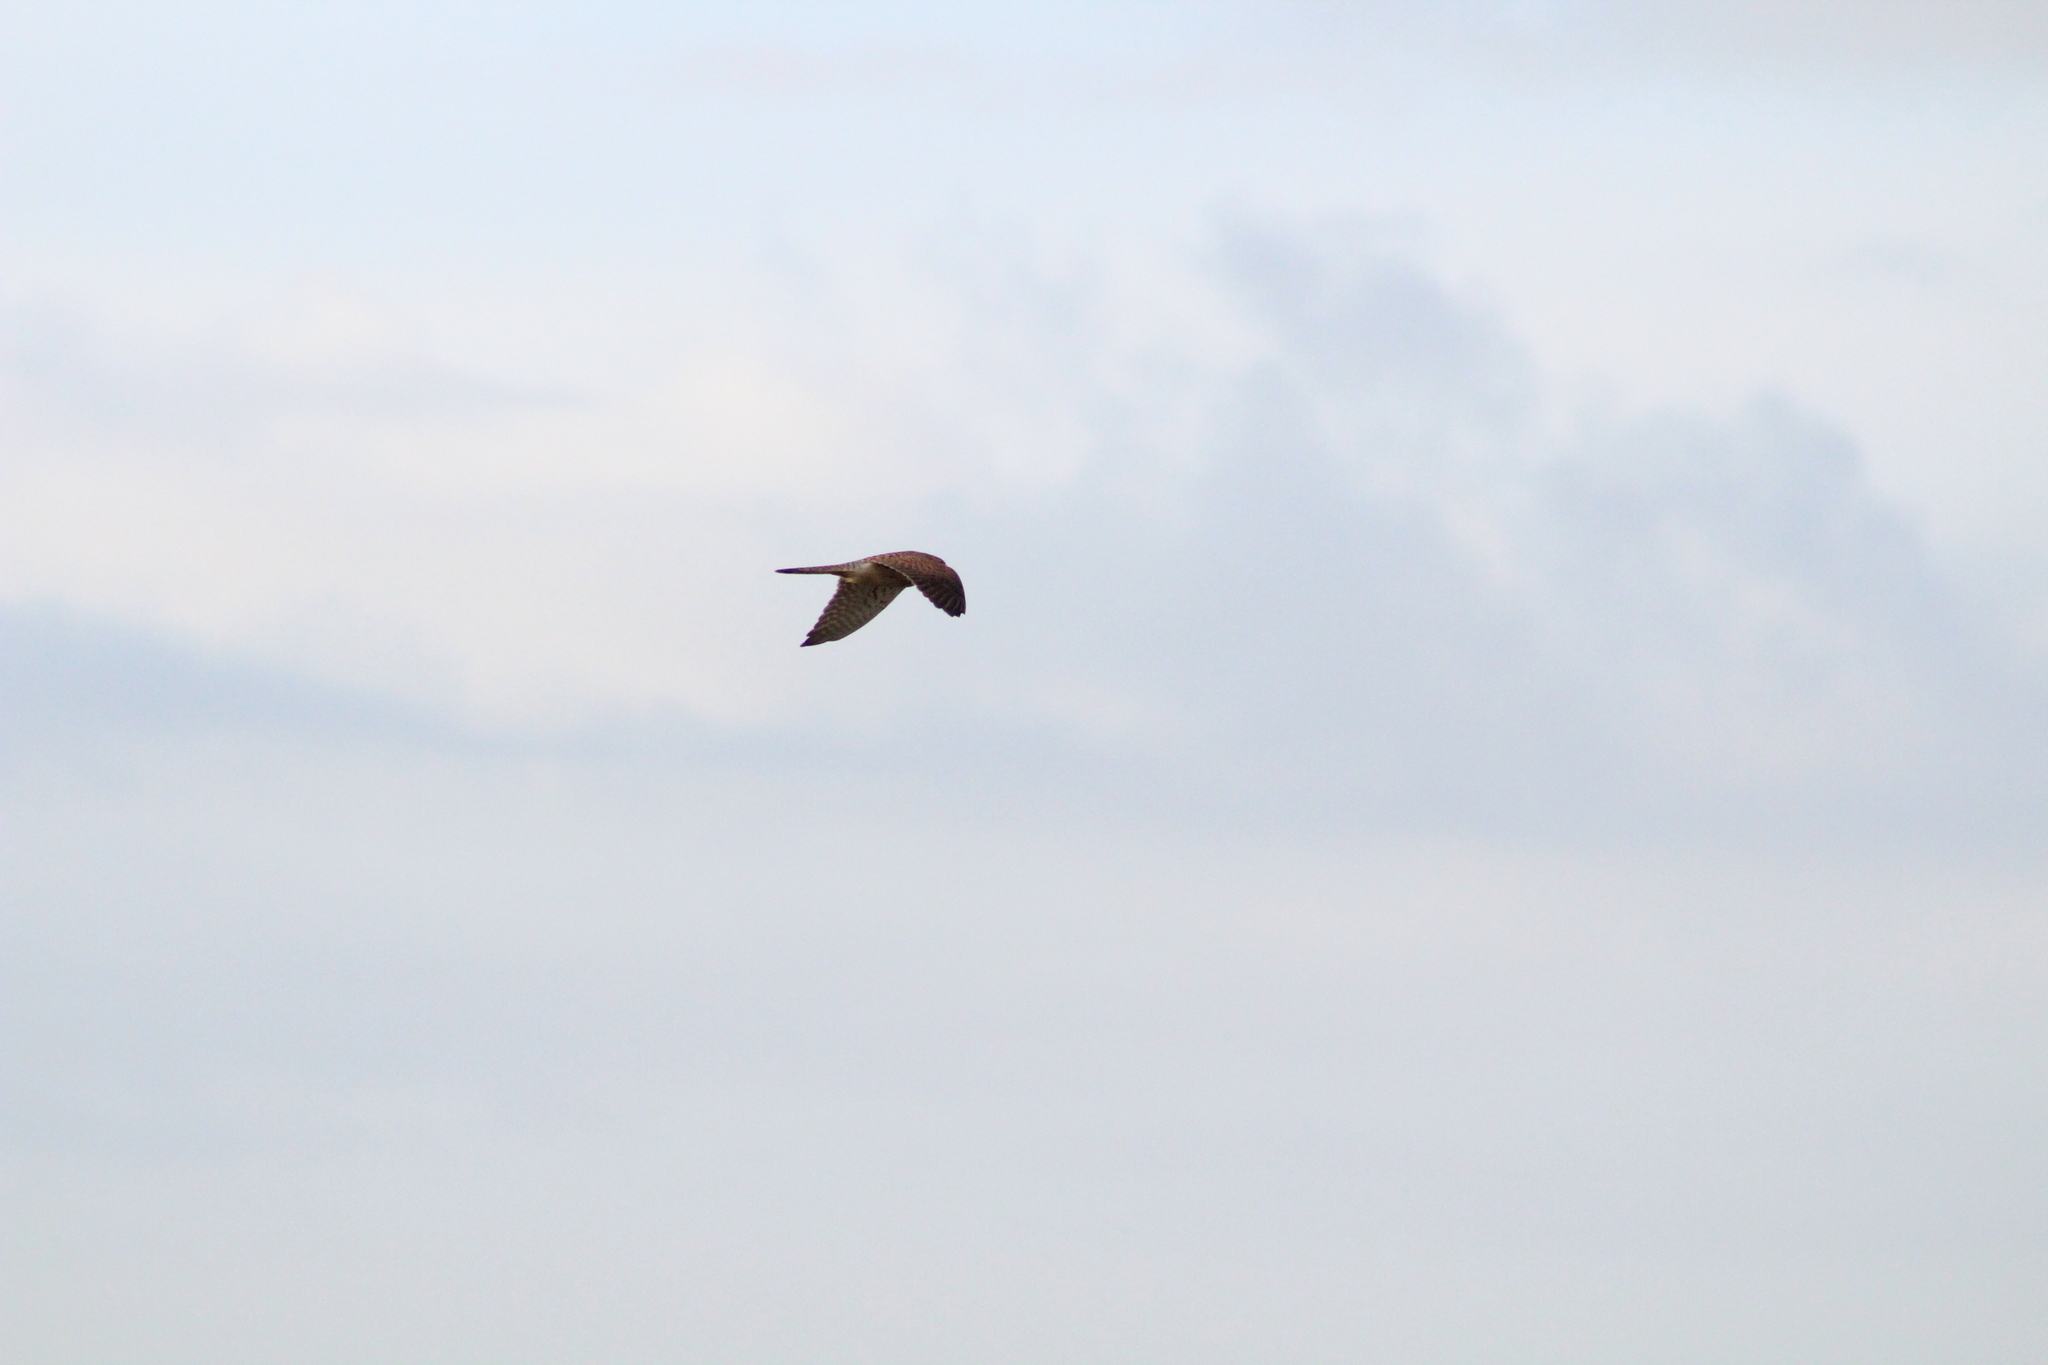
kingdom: Animalia
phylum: Chordata
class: Aves
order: Falconiformes
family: Falconidae
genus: Falco
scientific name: Falco tinnunculus
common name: Common kestrel
